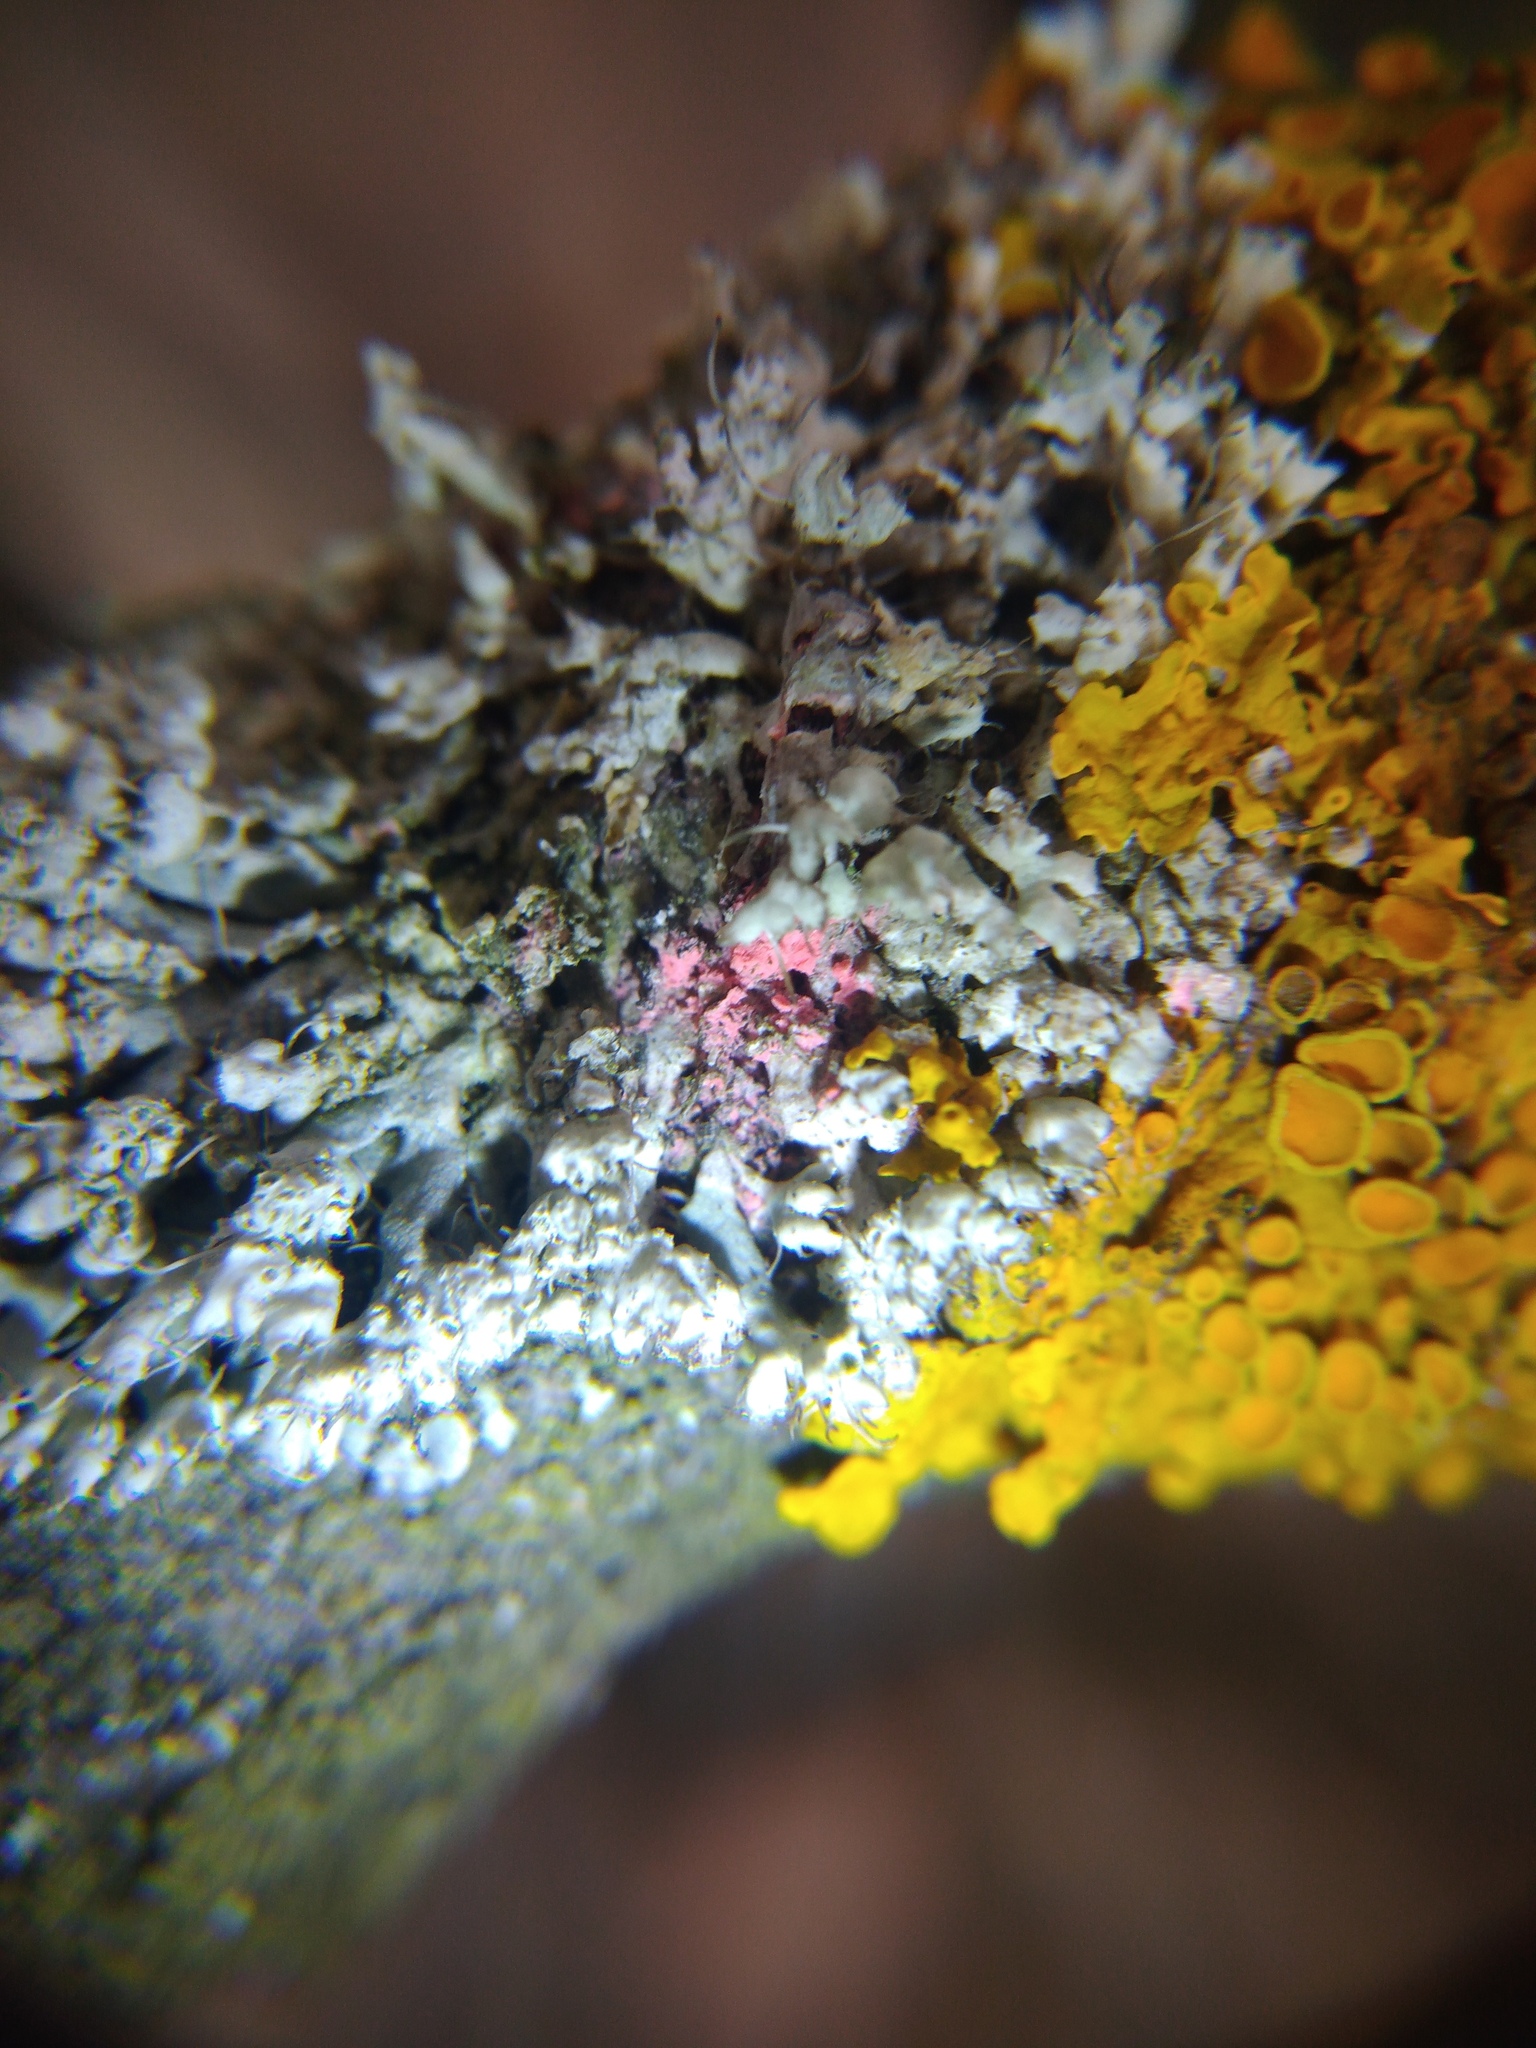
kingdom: Fungi
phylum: Ascomycota
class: Sordariomycetes
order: Hypocreales
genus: Illosporiopsis
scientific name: Illosporiopsis christiansenii
